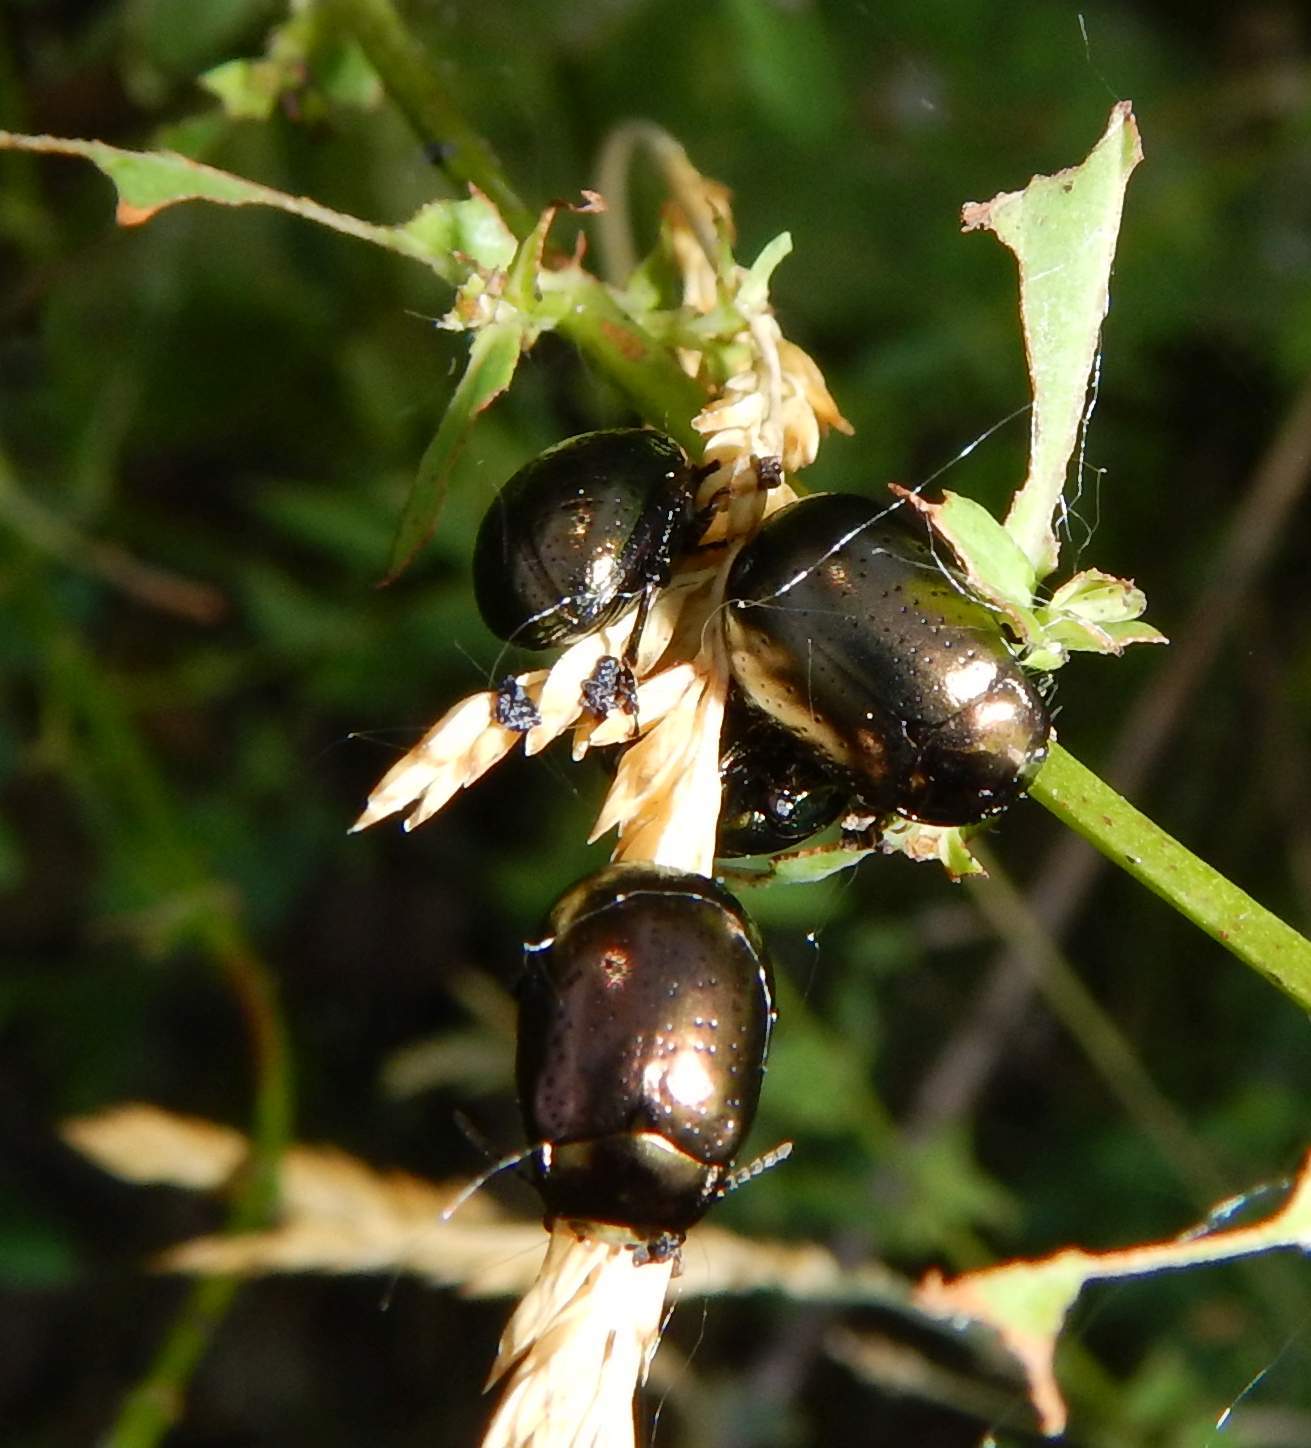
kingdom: Animalia
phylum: Arthropoda
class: Insecta
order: Coleoptera
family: Chrysomelidae
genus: Chrysolina
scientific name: Chrysolina hyperici
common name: St. johnswort beetle
